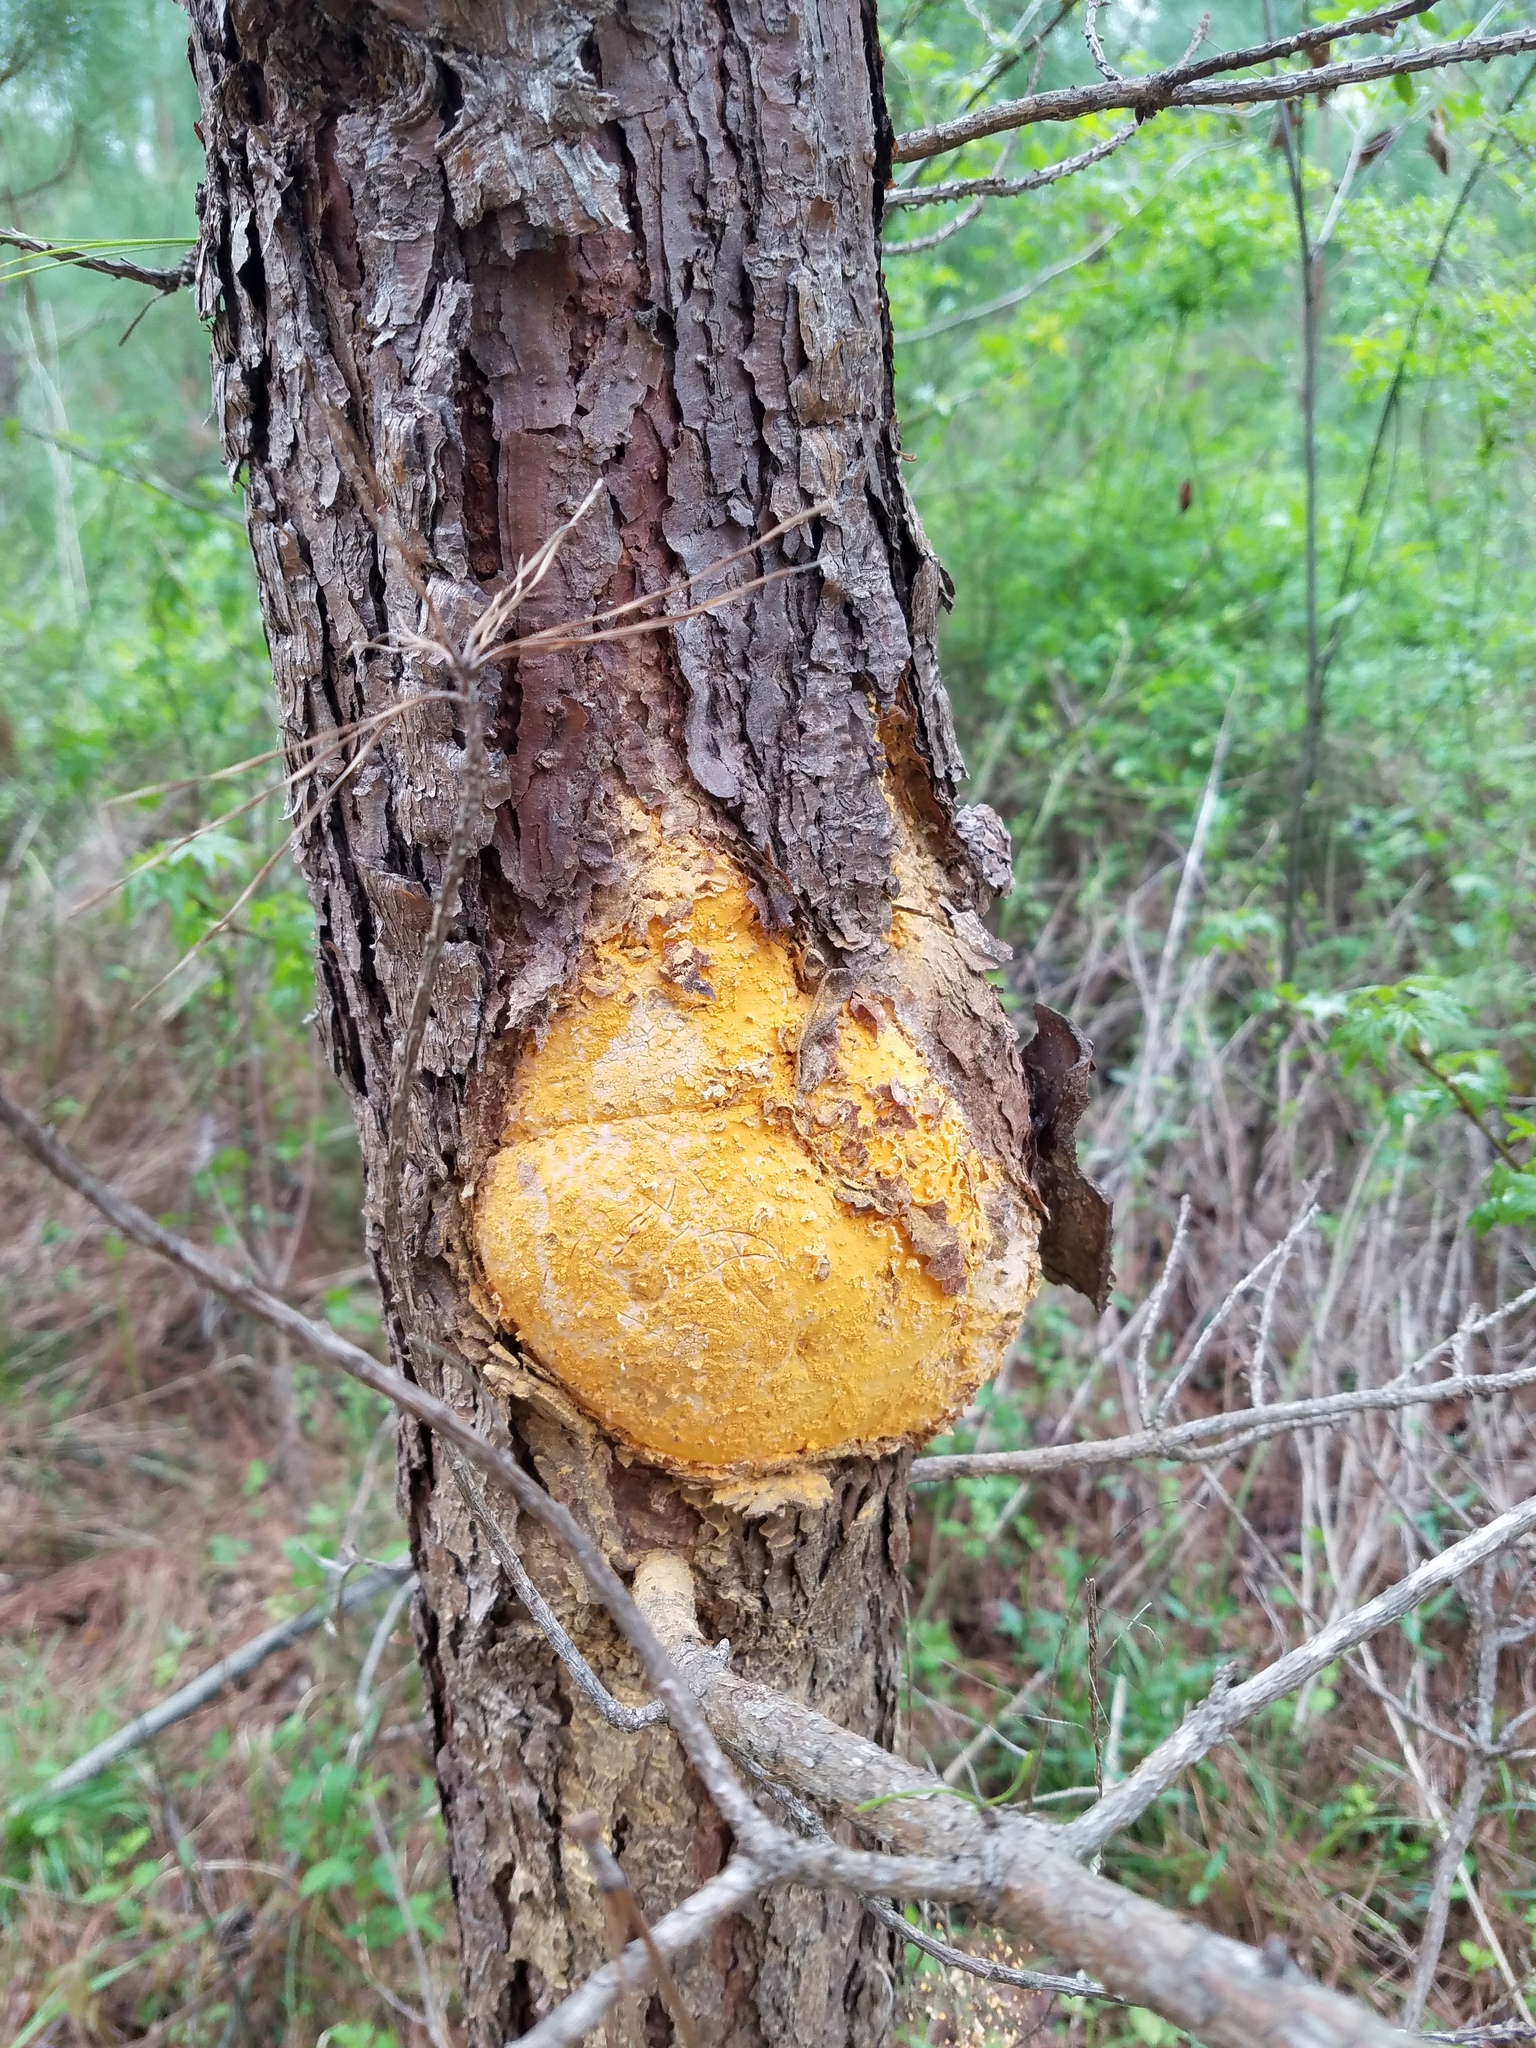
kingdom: Fungi
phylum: Basidiomycota
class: Pucciniomycetes
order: Pucciniales
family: Cronartiaceae
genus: Cronartium
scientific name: Cronartium fusiforme
